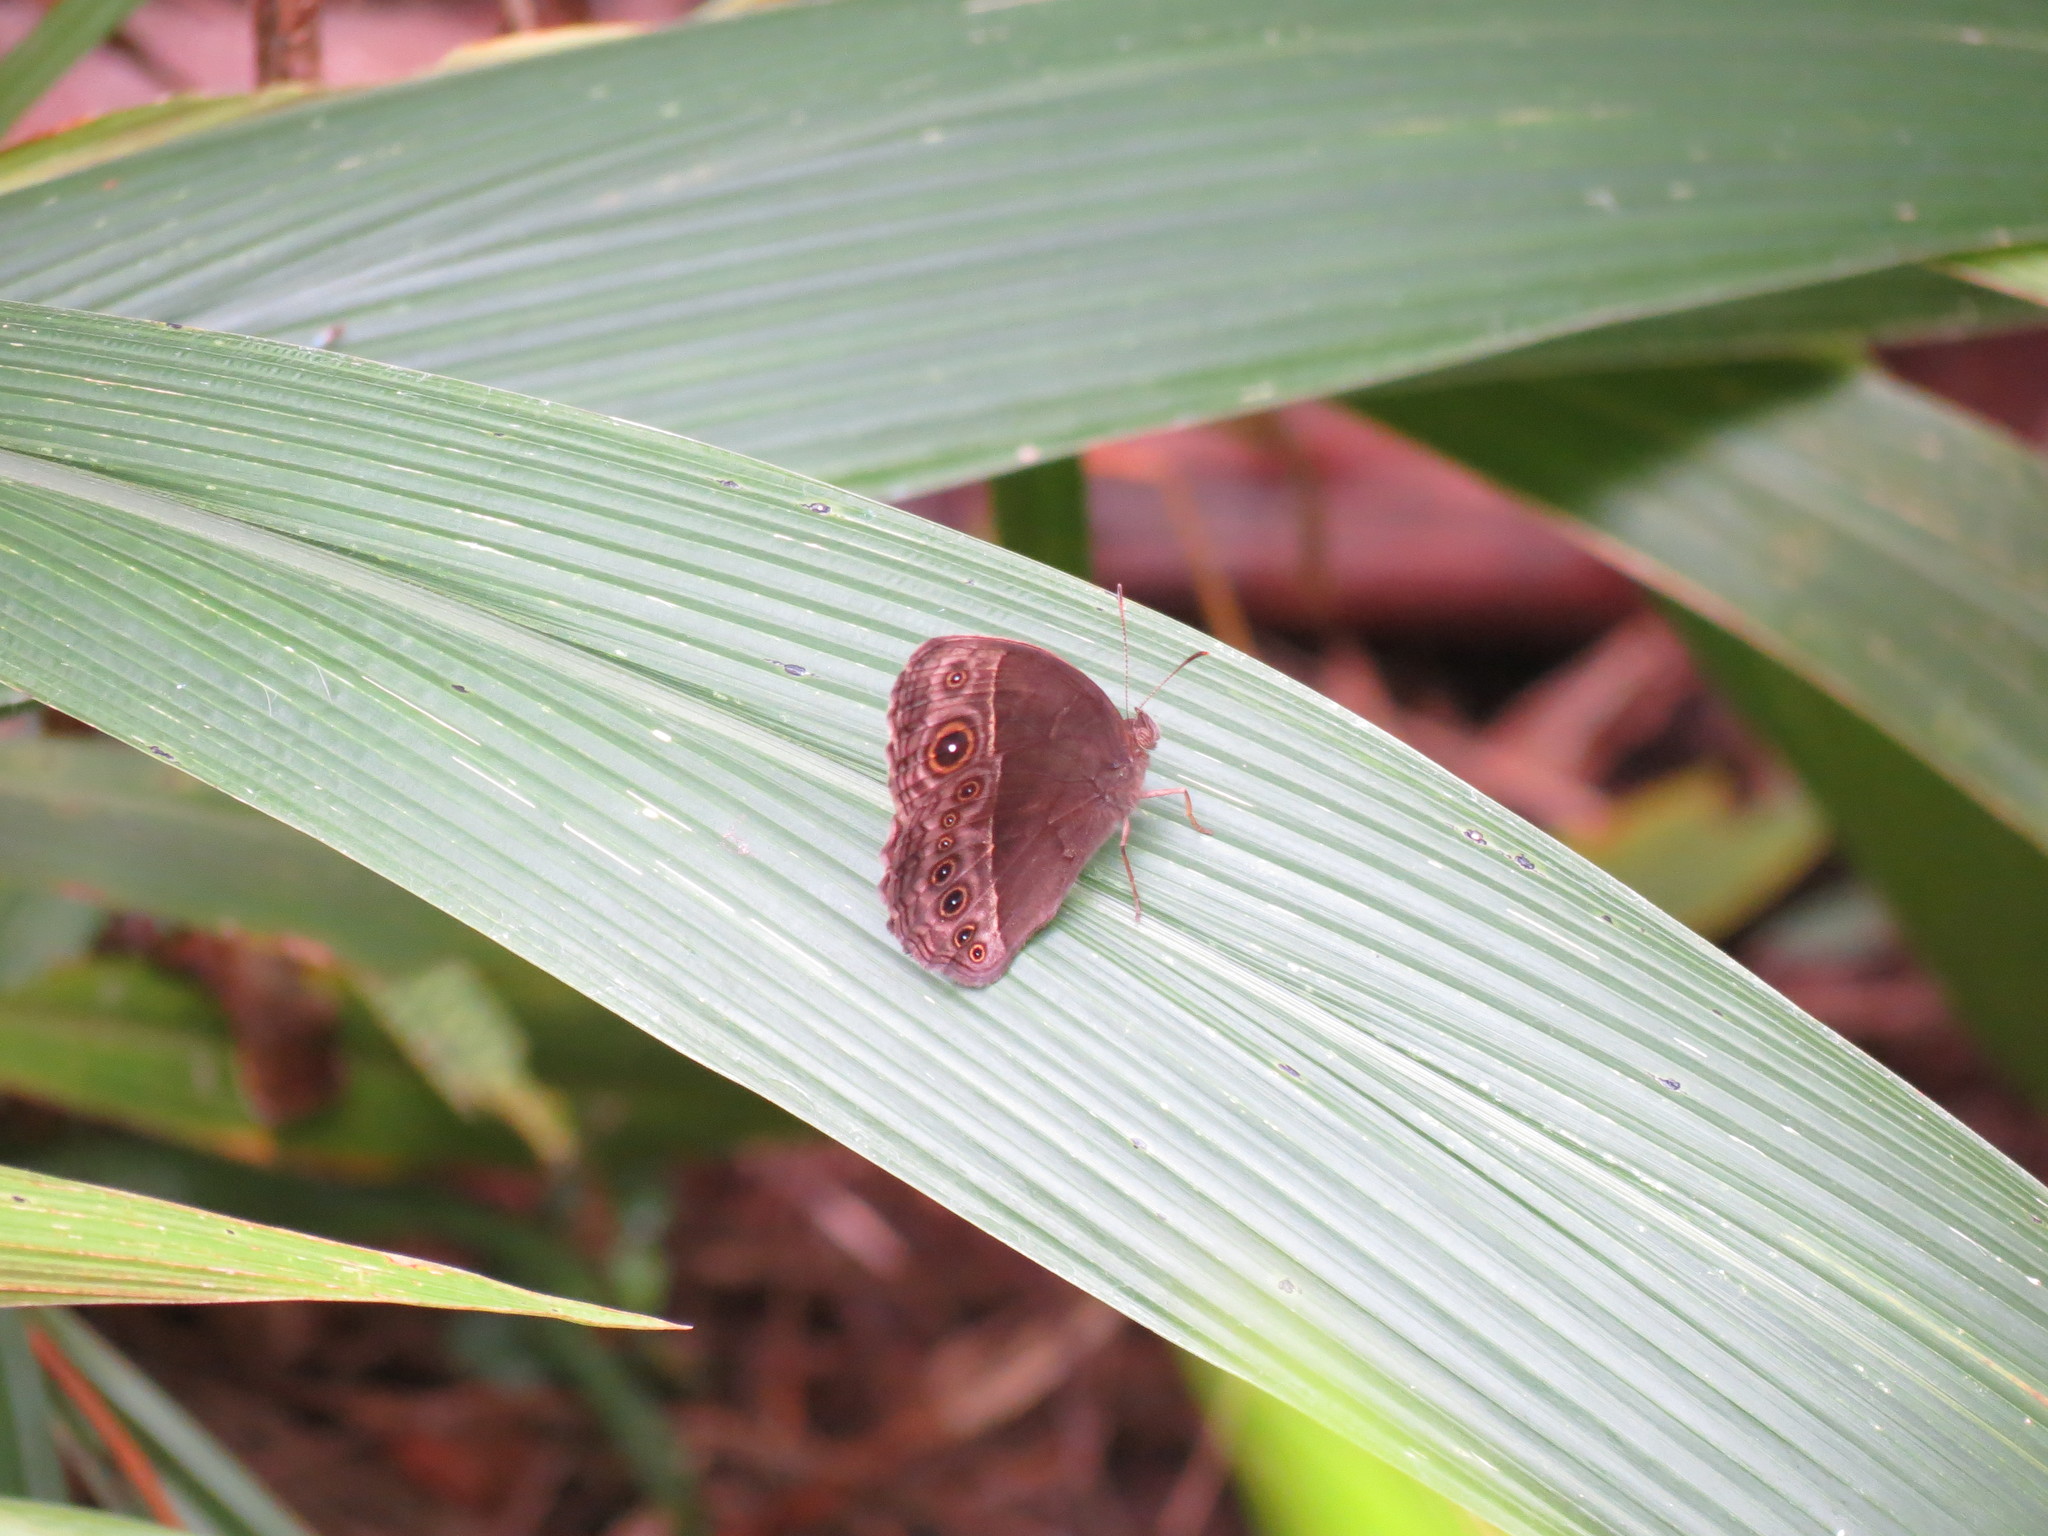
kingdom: Animalia
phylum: Arthropoda
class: Insecta
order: Lepidoptera
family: Nymphalidae
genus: Mycalesis
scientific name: Mycalesis rhacotis
